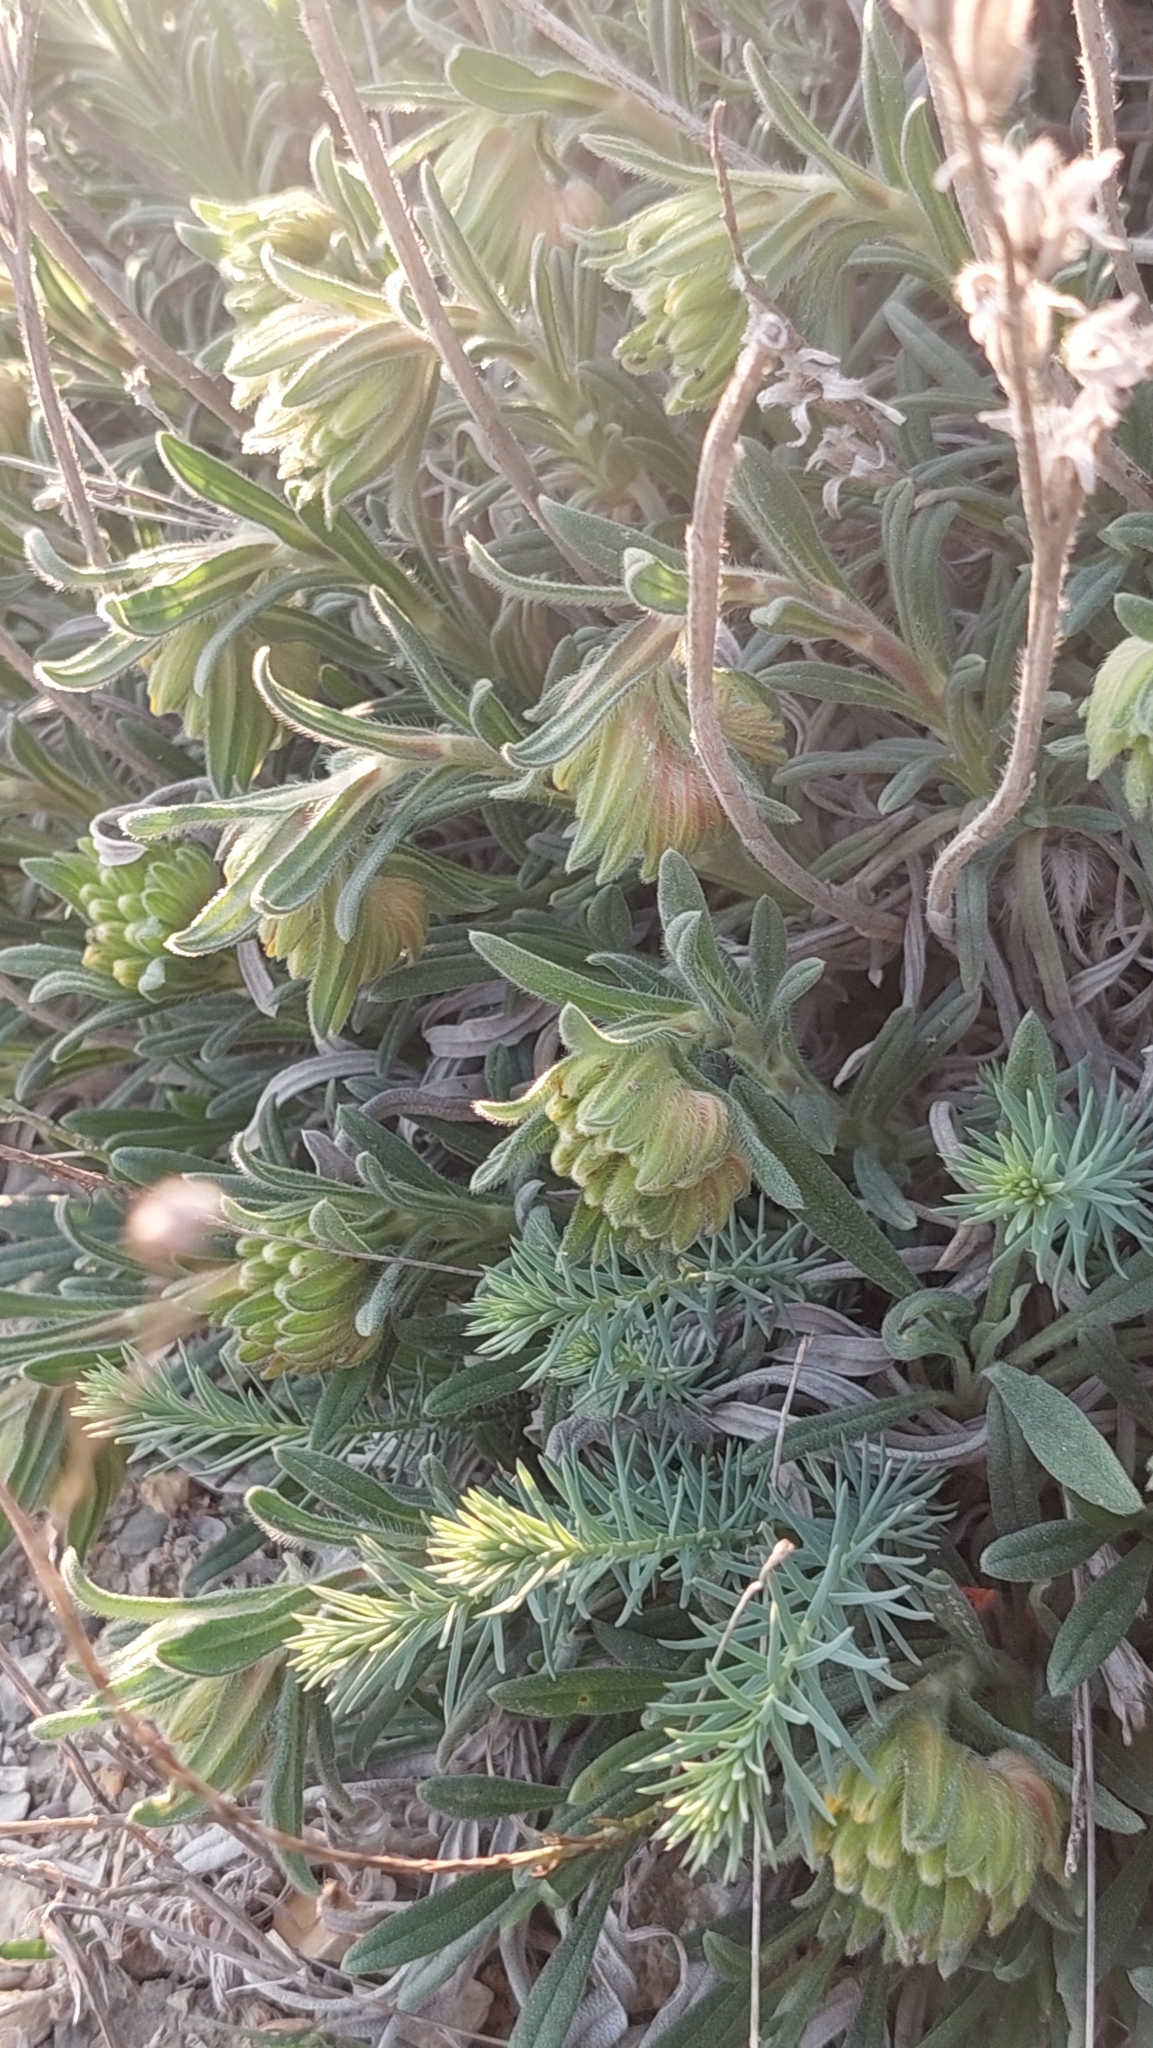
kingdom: Plantae
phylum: Tracheophyta
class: Magnoliopsida
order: Boraginales
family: Boraginaceae
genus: Onosma
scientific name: Onosma taurica
